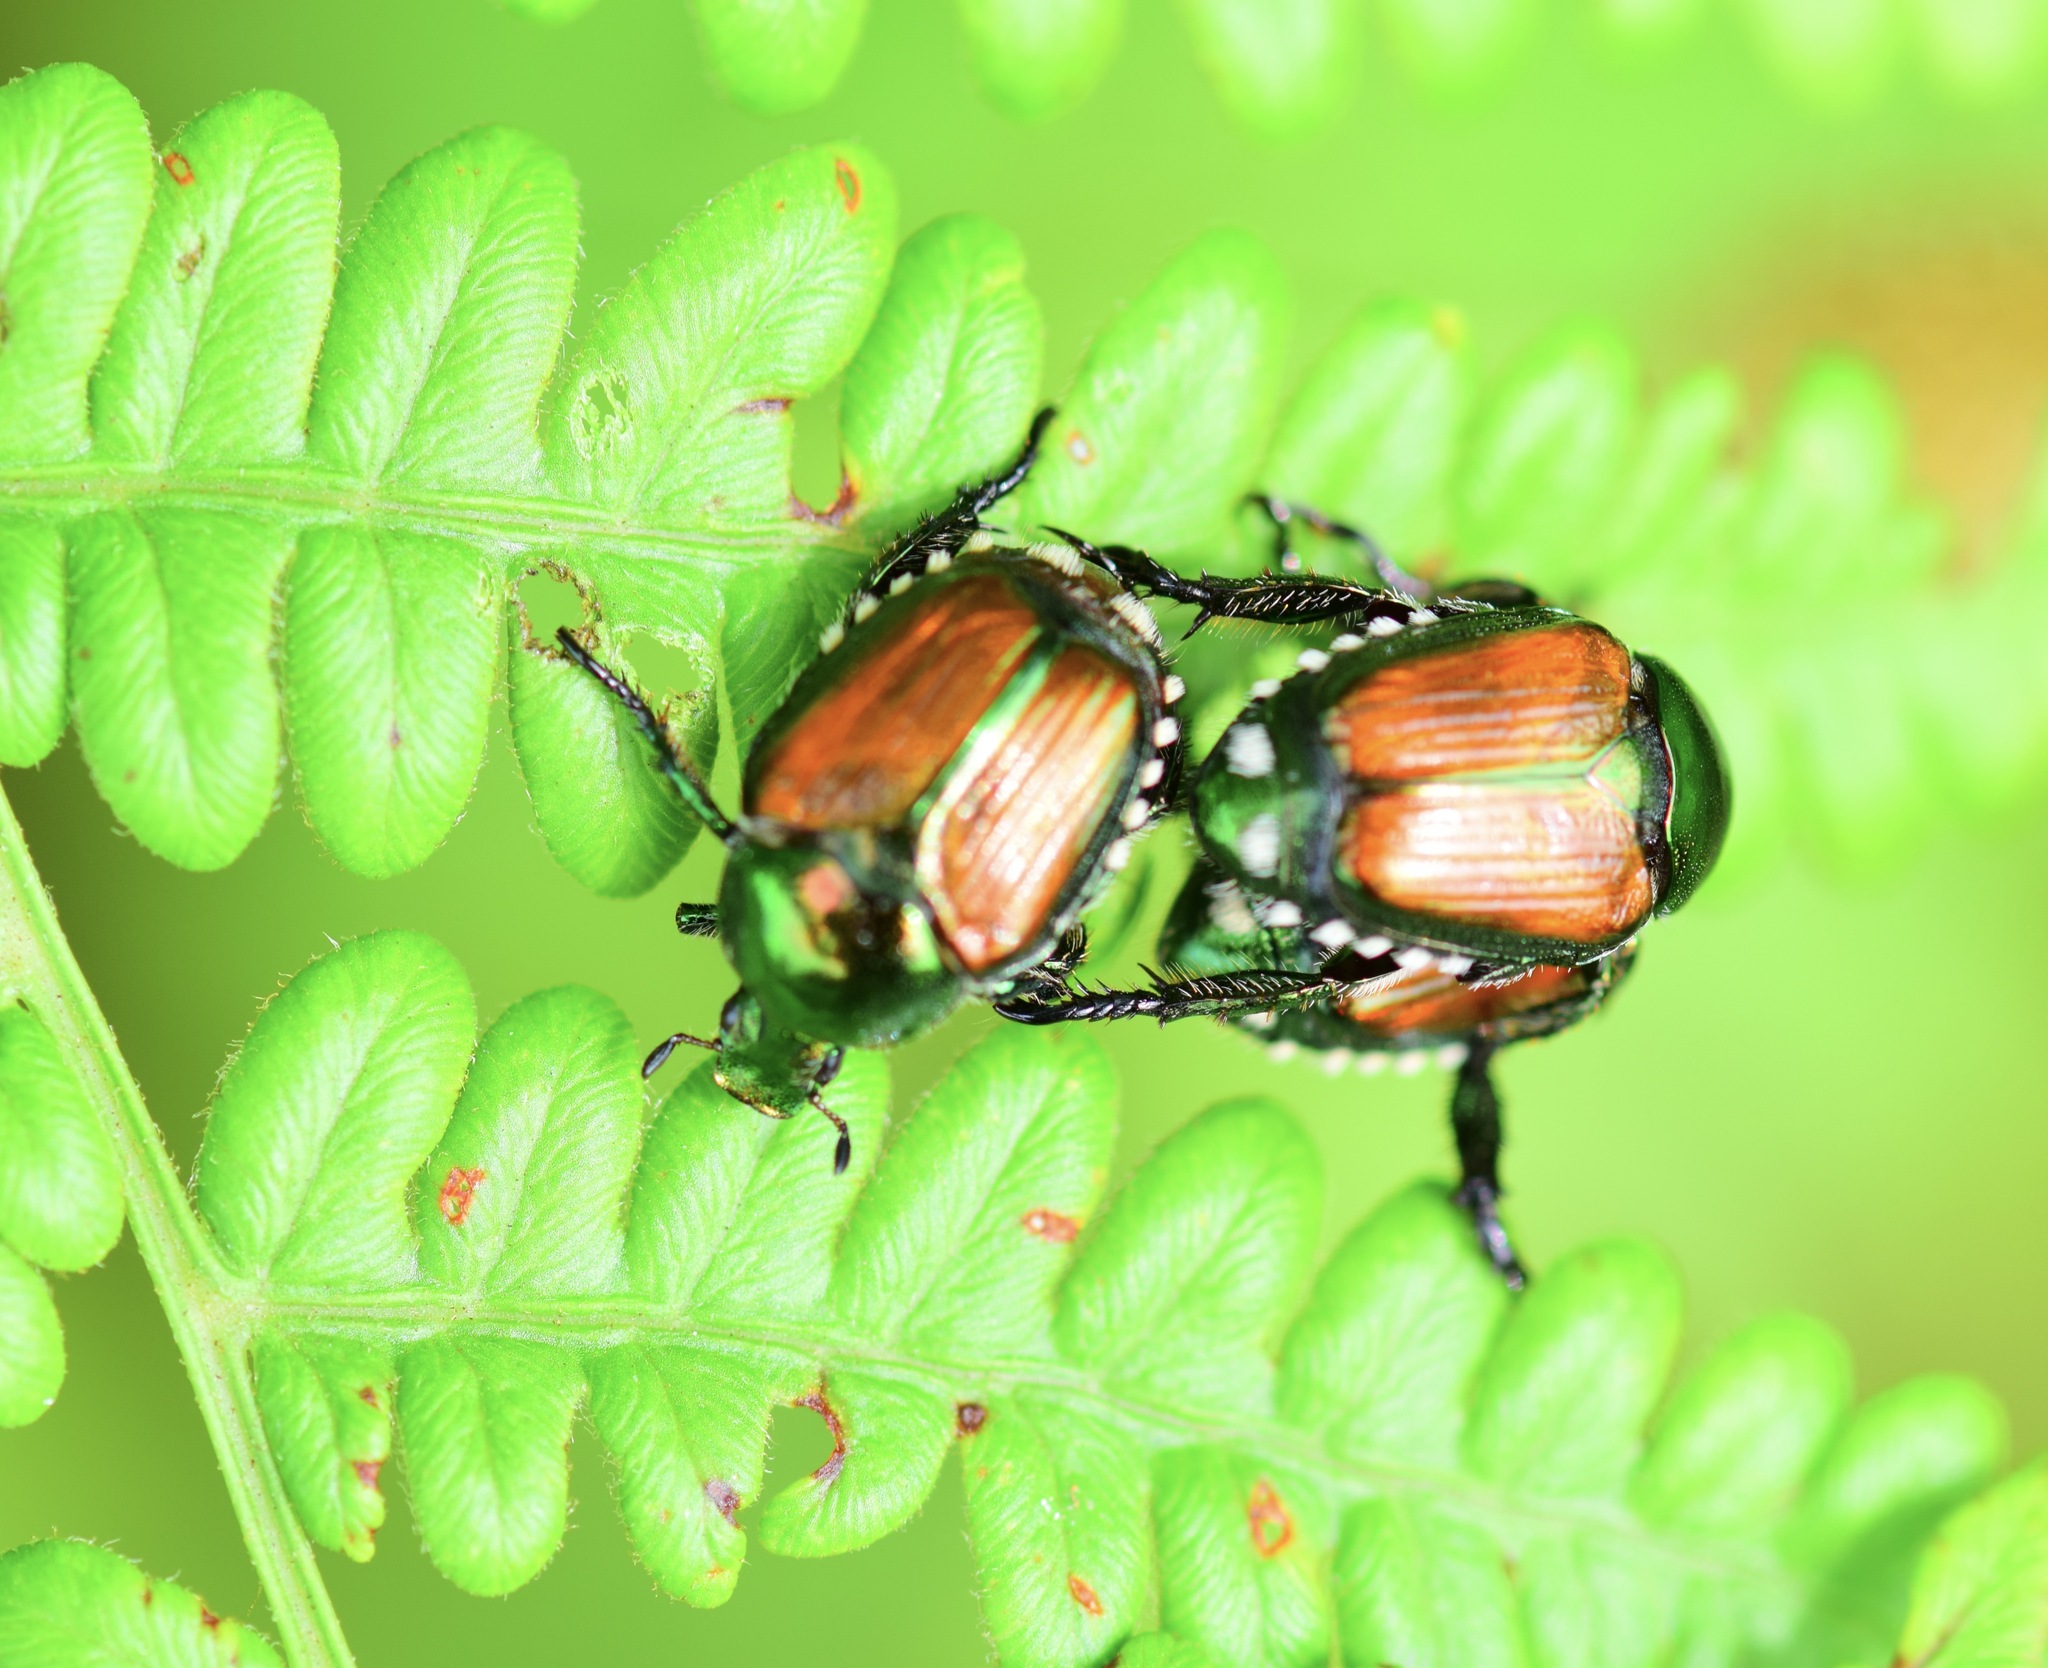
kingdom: Animalia
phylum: Arthropoda
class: Insecta
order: Coleoptera
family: Scarabaeidae
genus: Popillia
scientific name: Popillia japonica
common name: Japanese beetle
